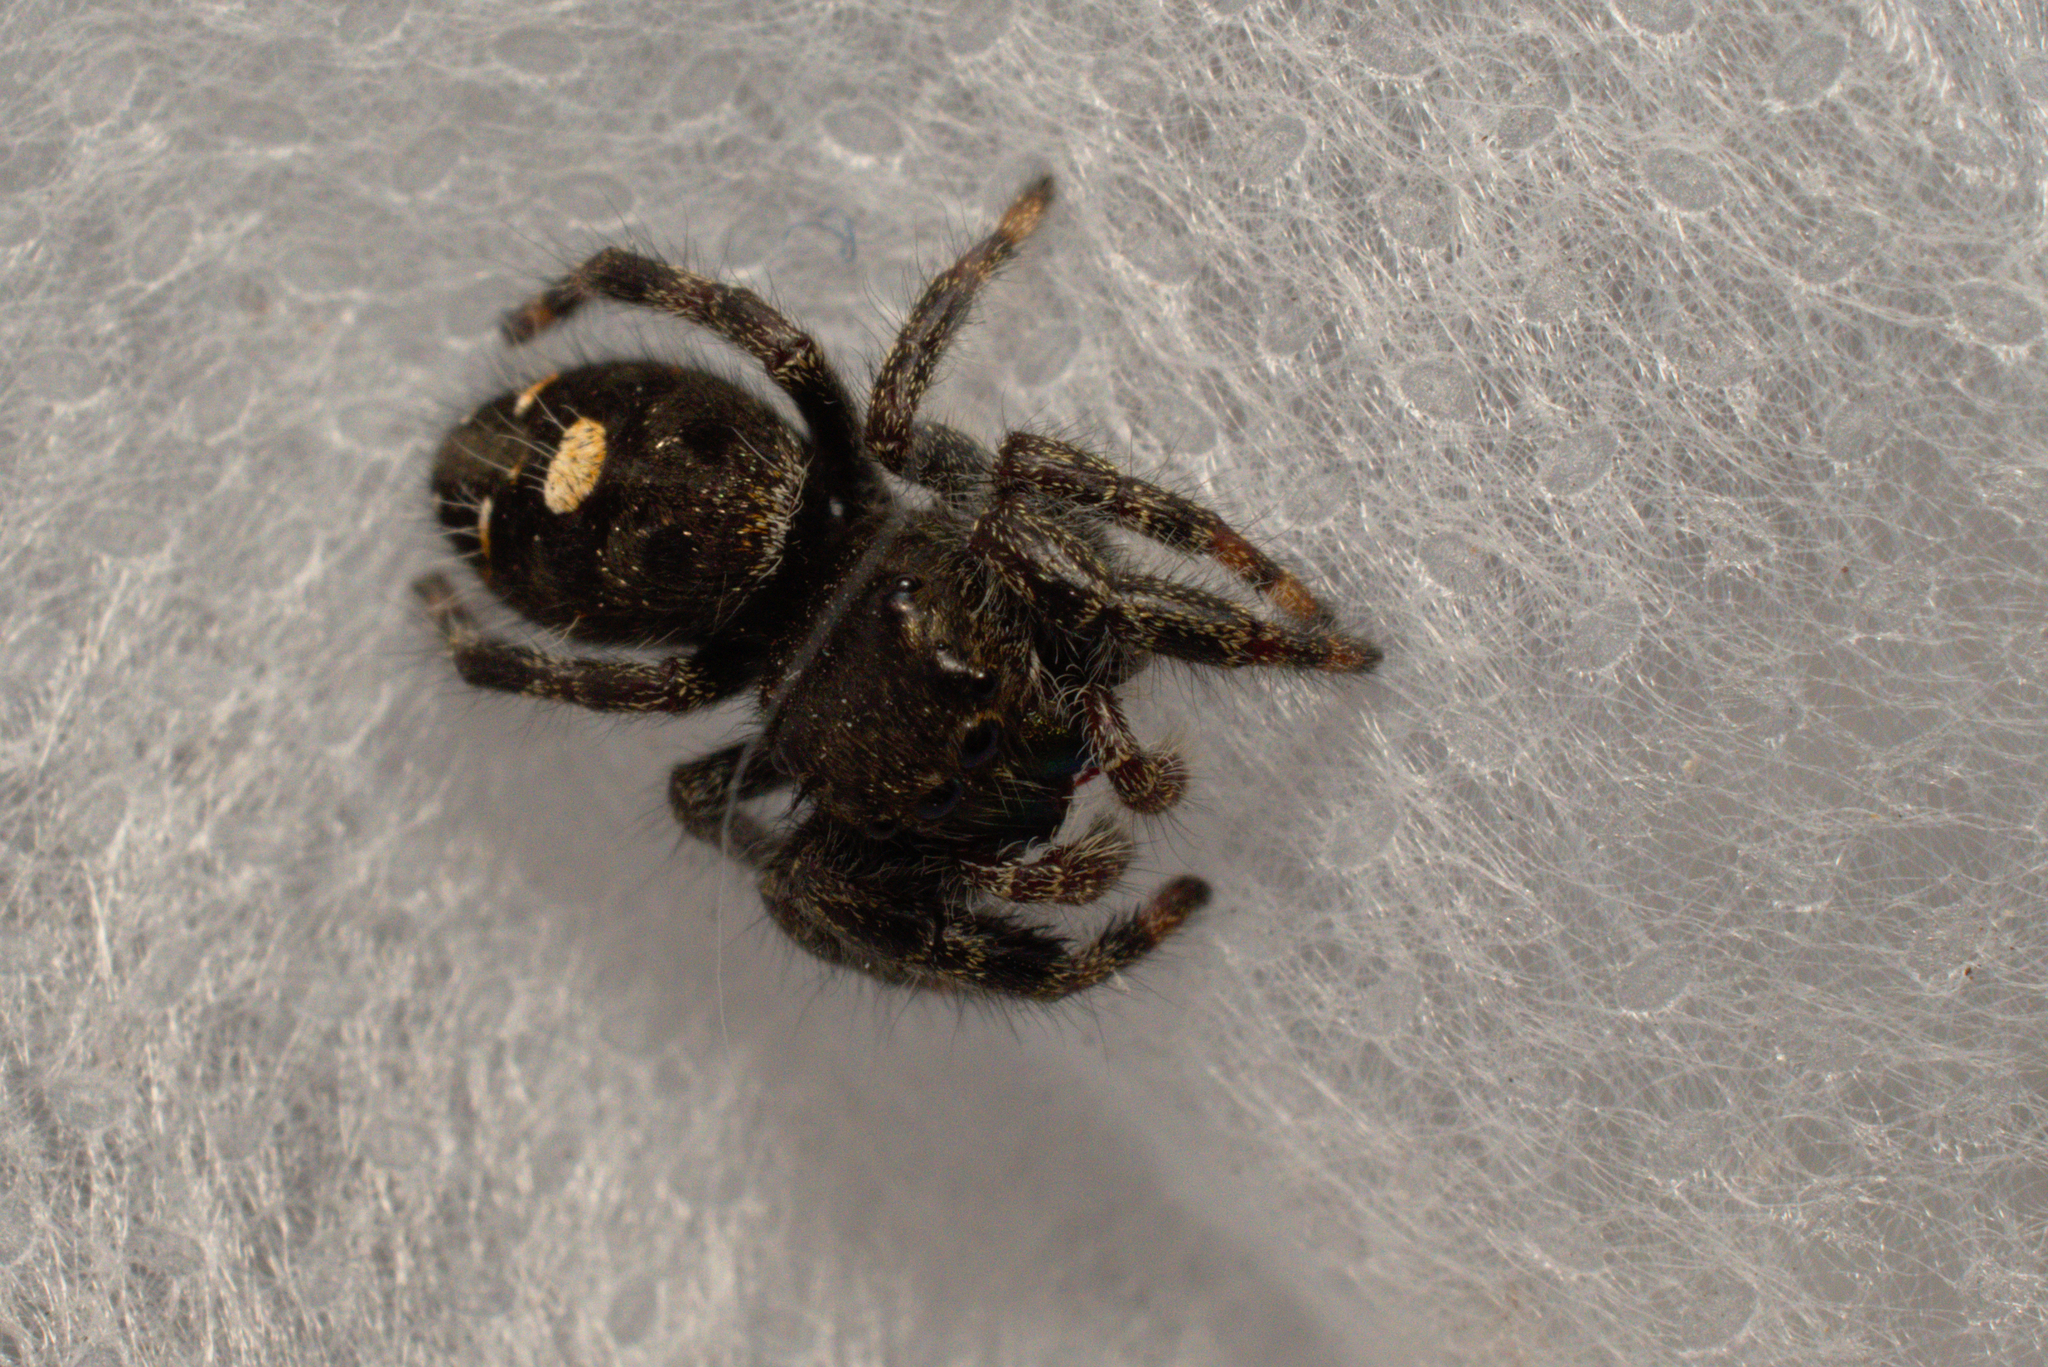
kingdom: Animalia
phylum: Arthropoda
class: Arachnida
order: Araneae
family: Salticidae
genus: Phidippus
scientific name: Phidippus audax
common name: Bold jumper
